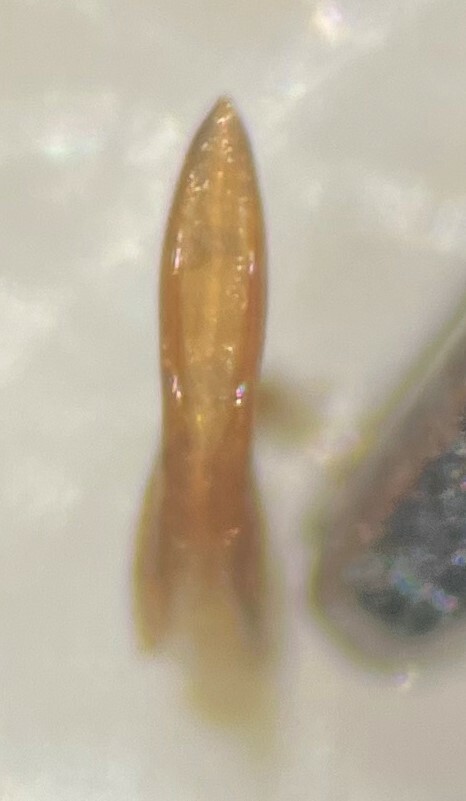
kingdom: Animalia
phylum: Arthropoda
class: Insecta
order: Coleoptera
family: Dytiscidae
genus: Neoporus
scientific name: Neoporus carolinus
